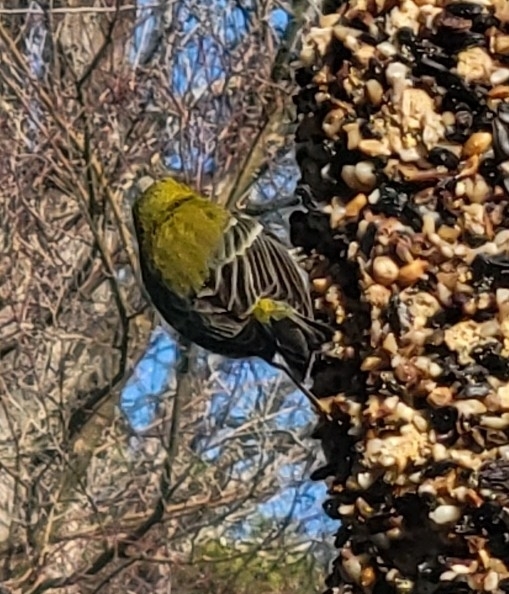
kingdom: Animalia
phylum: Chordata
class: Aves
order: Passeriformes
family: Parulidae
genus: Setophaga
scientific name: Setophaga pinus
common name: Pine warbler
